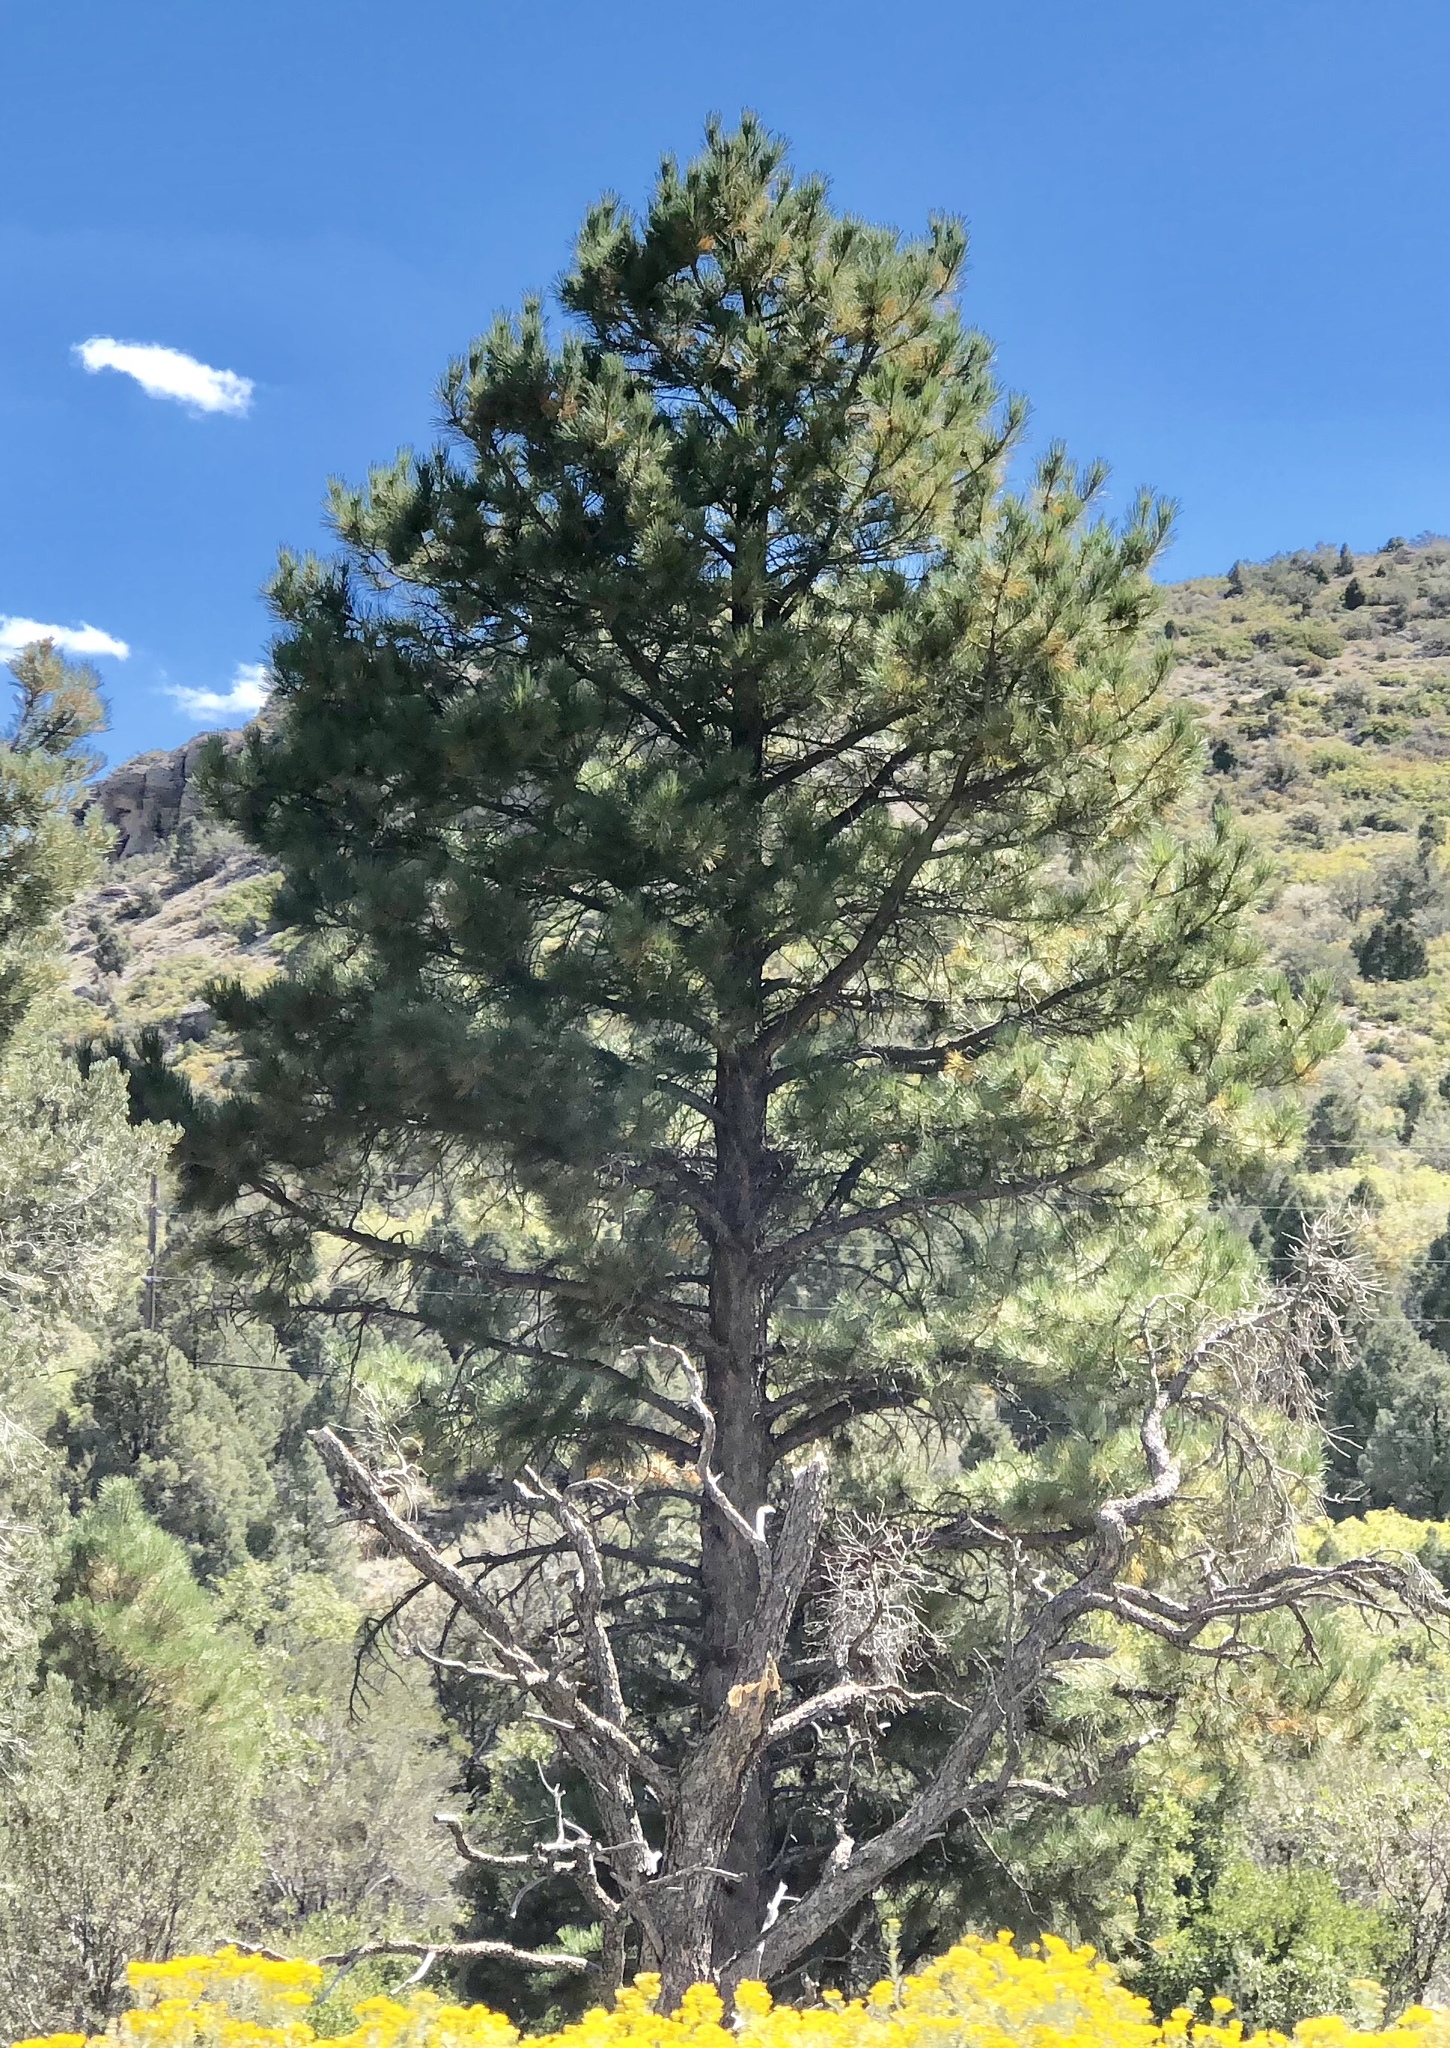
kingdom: Plantae
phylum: Tracheophyta
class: Pinopsida
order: Pinales
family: Pinaceae
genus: Pinus
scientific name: Pinus ponderosa
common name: Western yellow-pine
